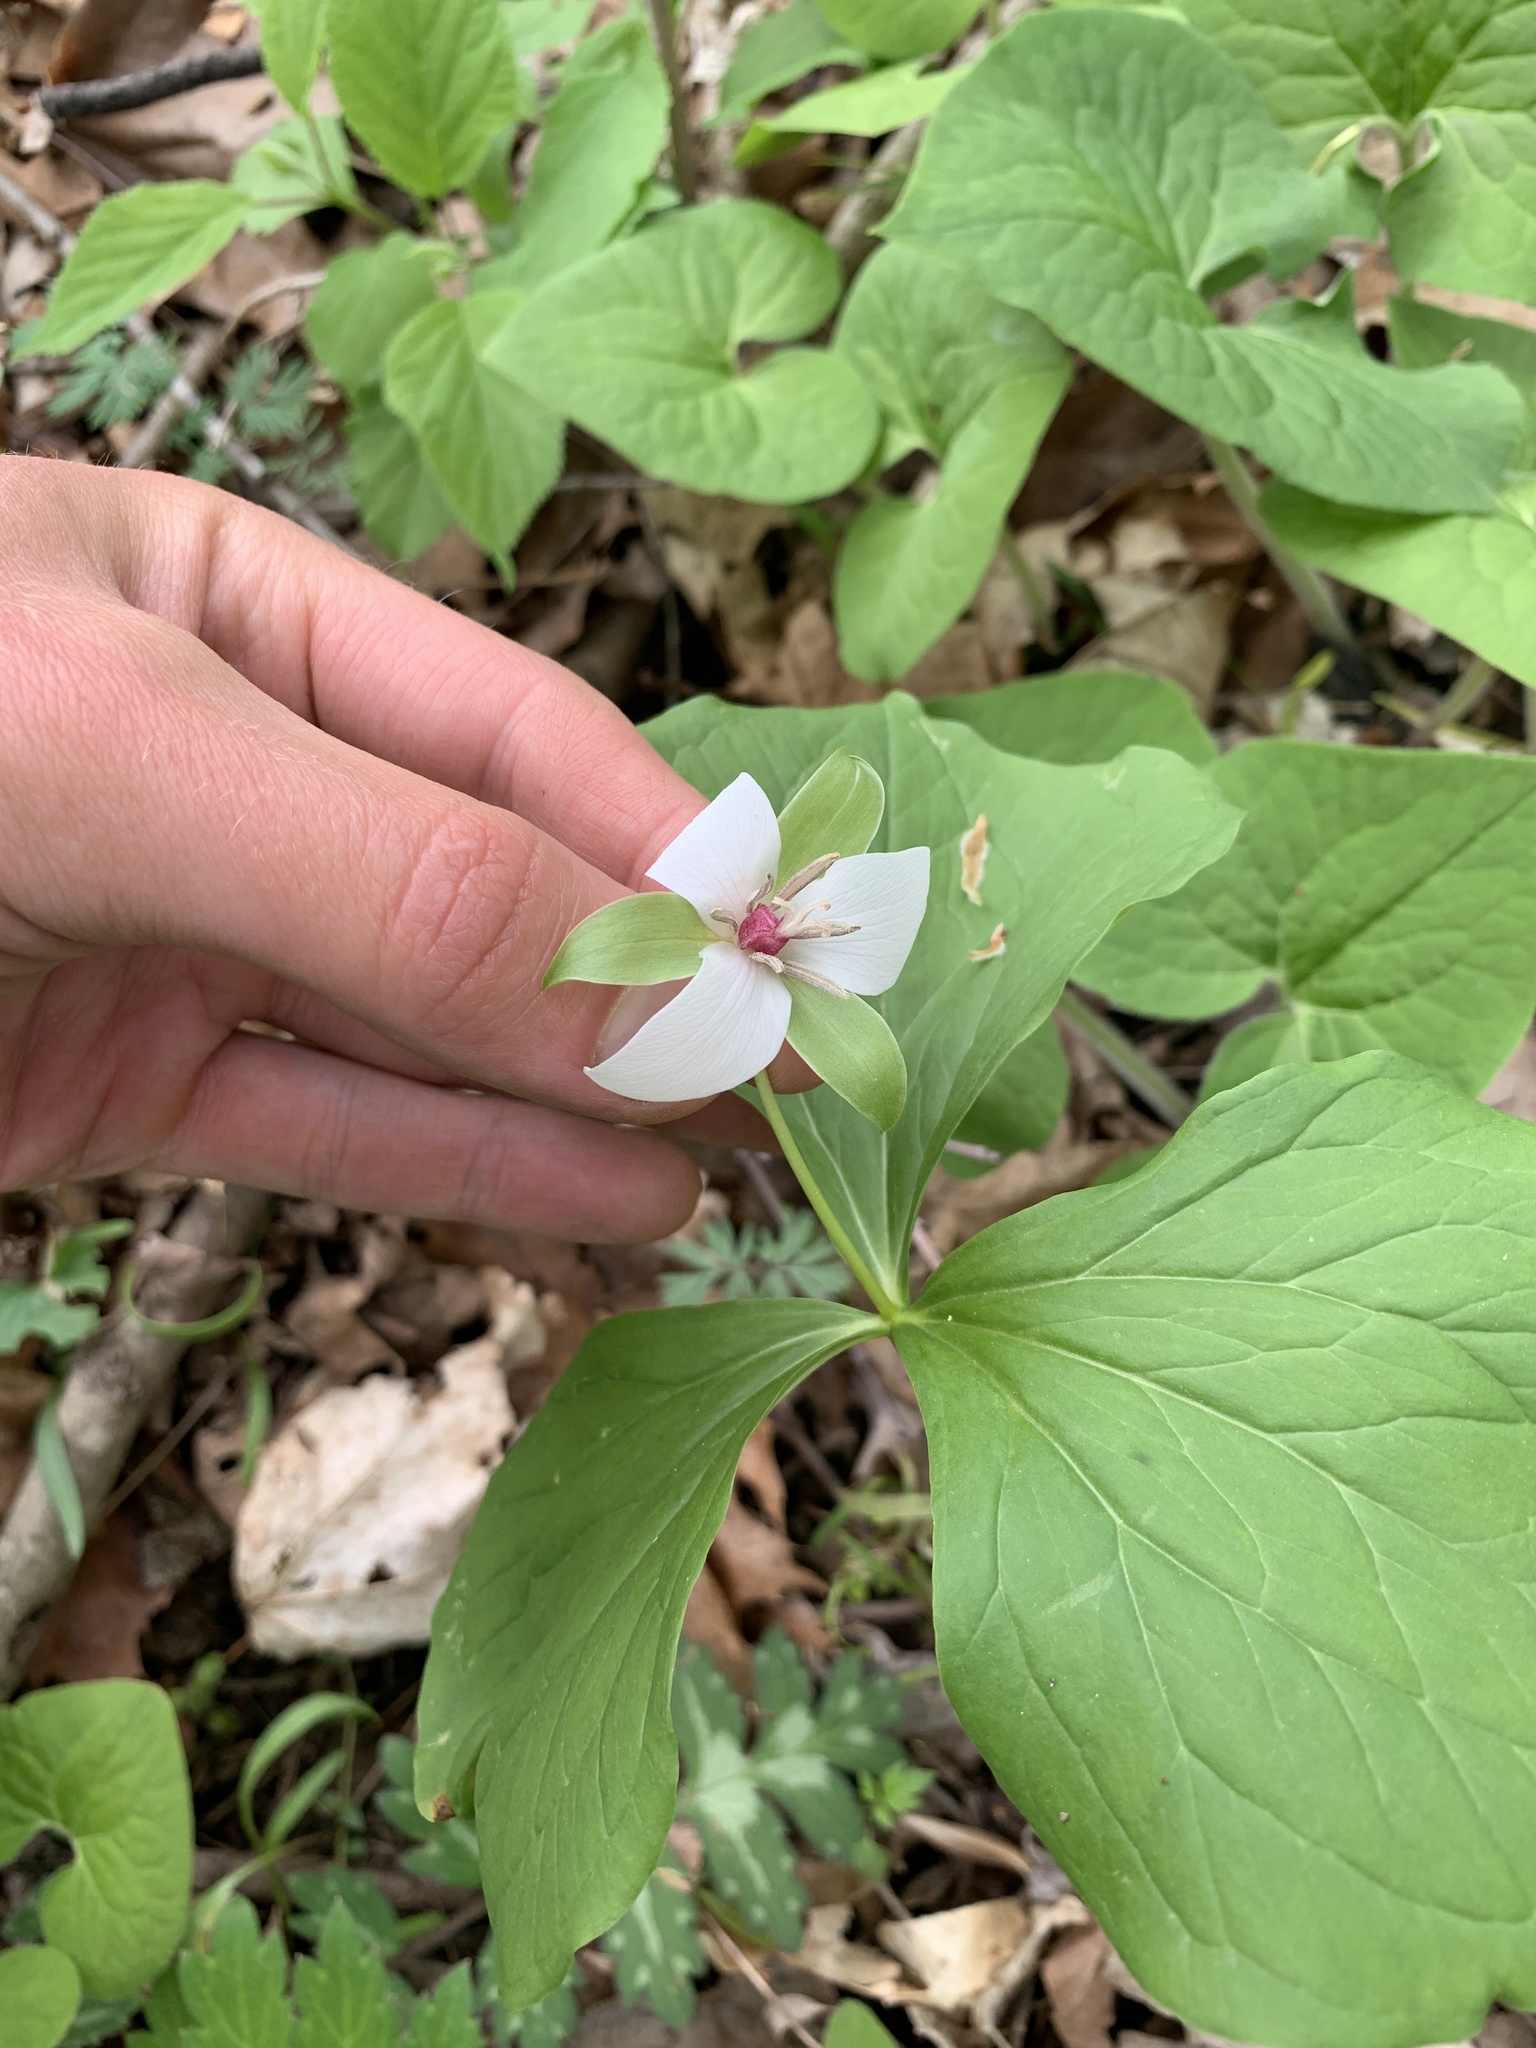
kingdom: Plantae
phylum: Tracheophyta
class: Liliopsida
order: Liliales
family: Melanthiaceae
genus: Trillium
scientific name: Trillium flexipes
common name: Drooping trillium
